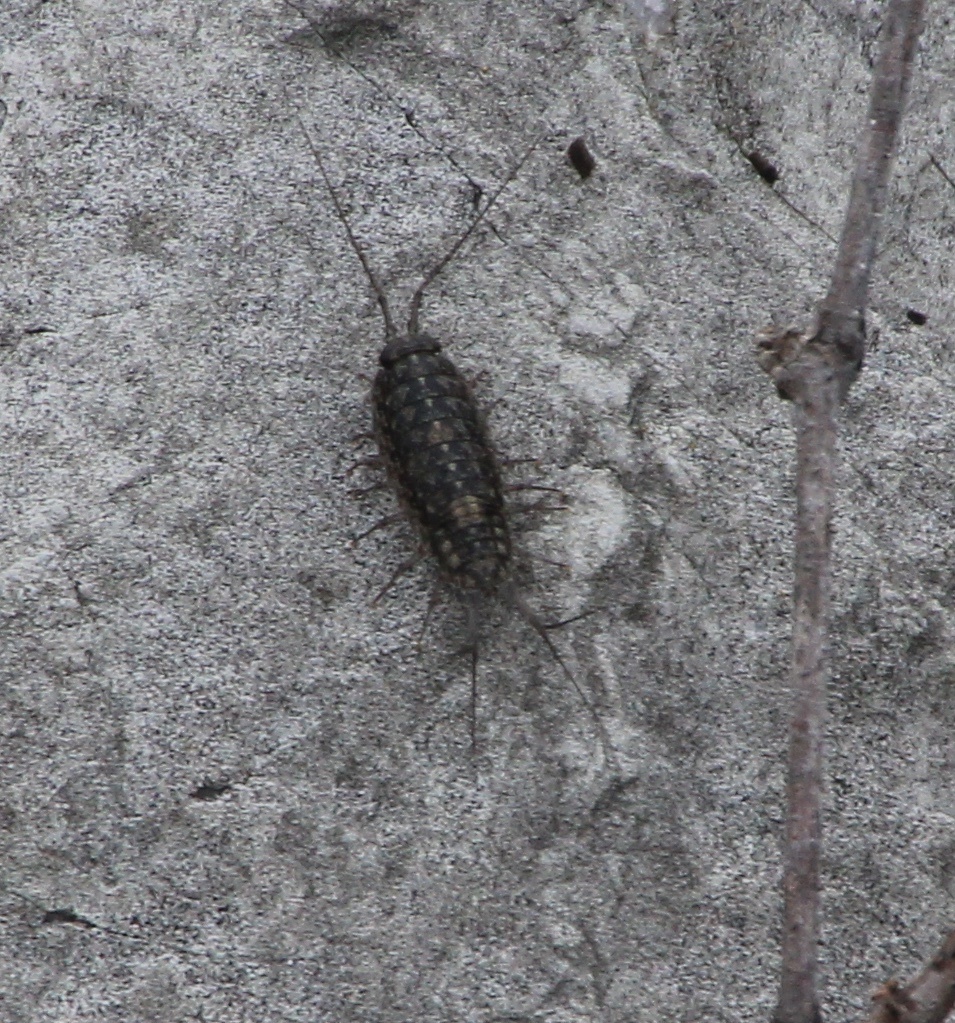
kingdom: Animalia
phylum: Arthropoda
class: Malacostraca
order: Isopoda
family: Ligiidae
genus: Ligia
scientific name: Ligia exotica
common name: Wharf roach
